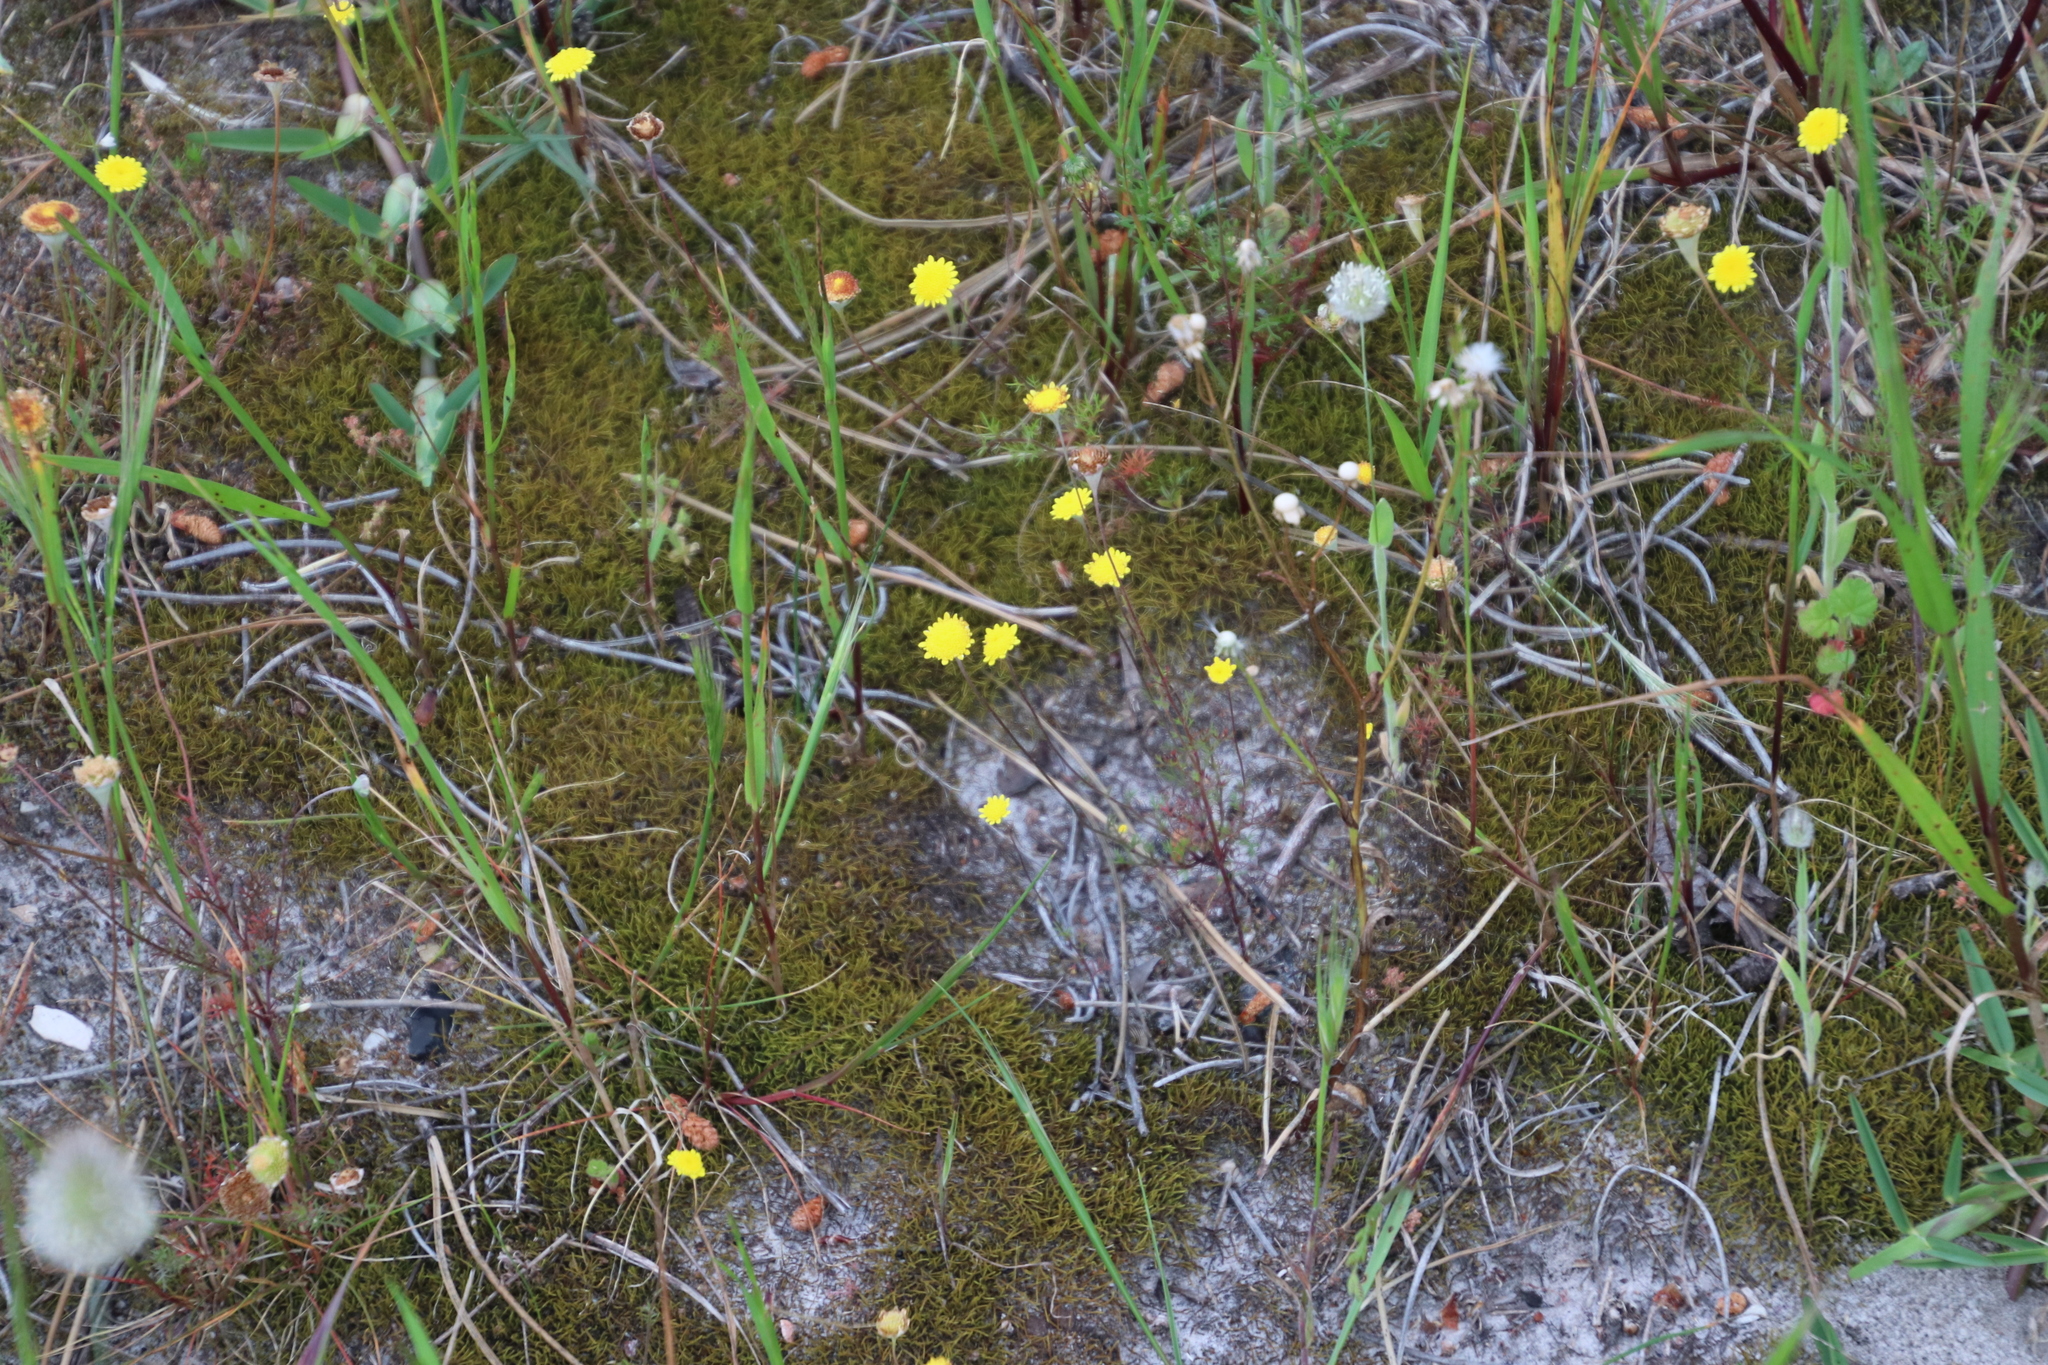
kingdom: Plantae
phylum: Tracheophyta
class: Magnoliopsida
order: Asterales
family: Asteraceae
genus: Cotula
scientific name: Cotula pruinosa
